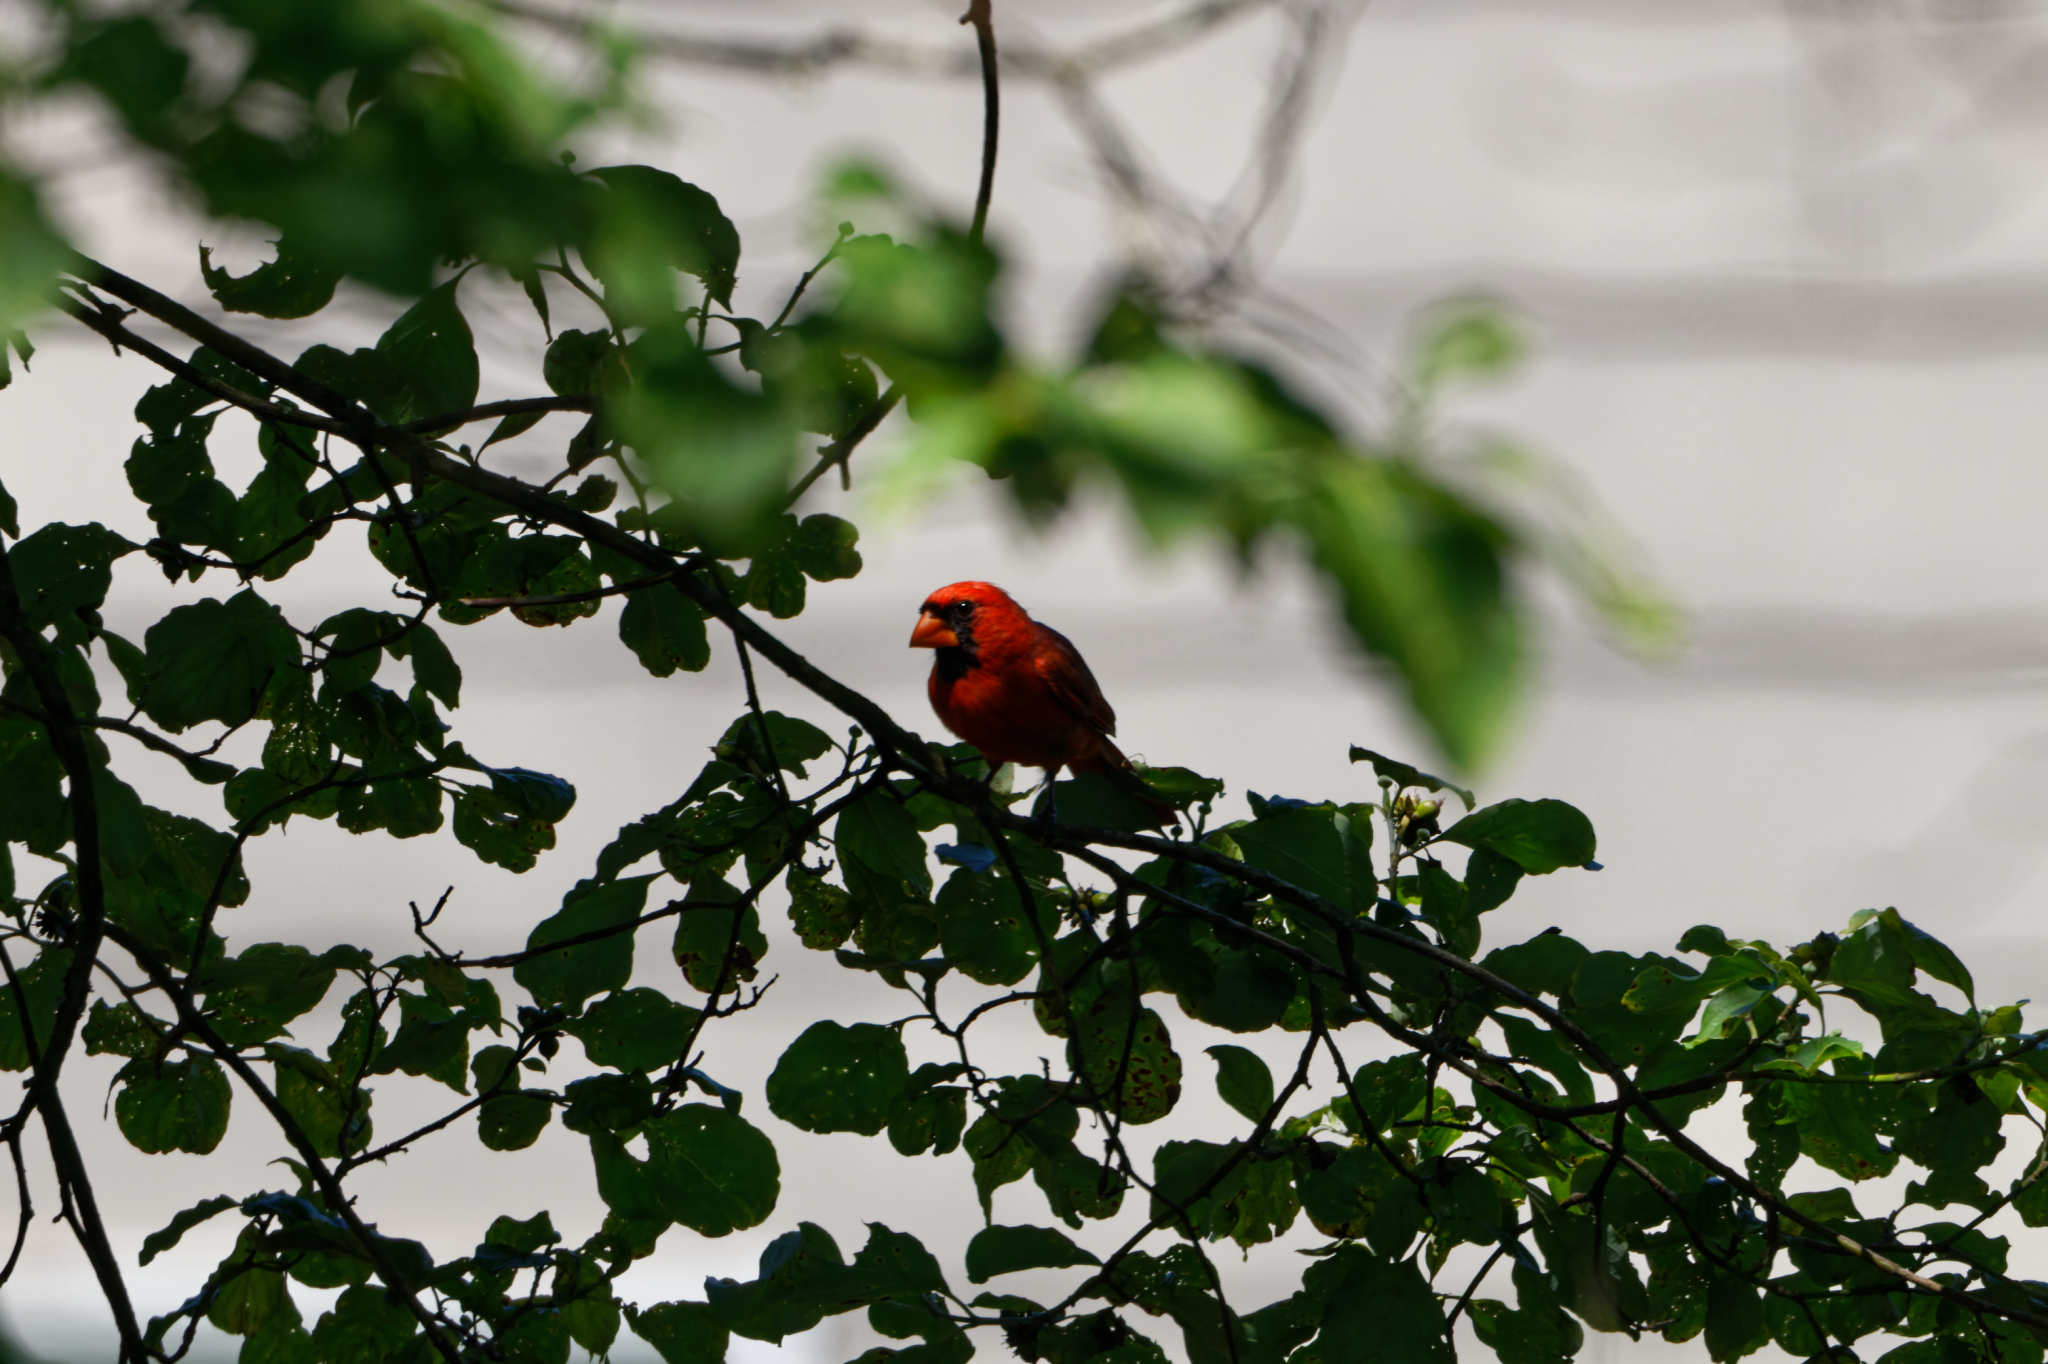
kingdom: Animalia
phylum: Chordata
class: Aves
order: Passeriformes
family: Cardinalidae
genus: Cardinalis
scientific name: Cardinalis cardinalis
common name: Northern cardinal
